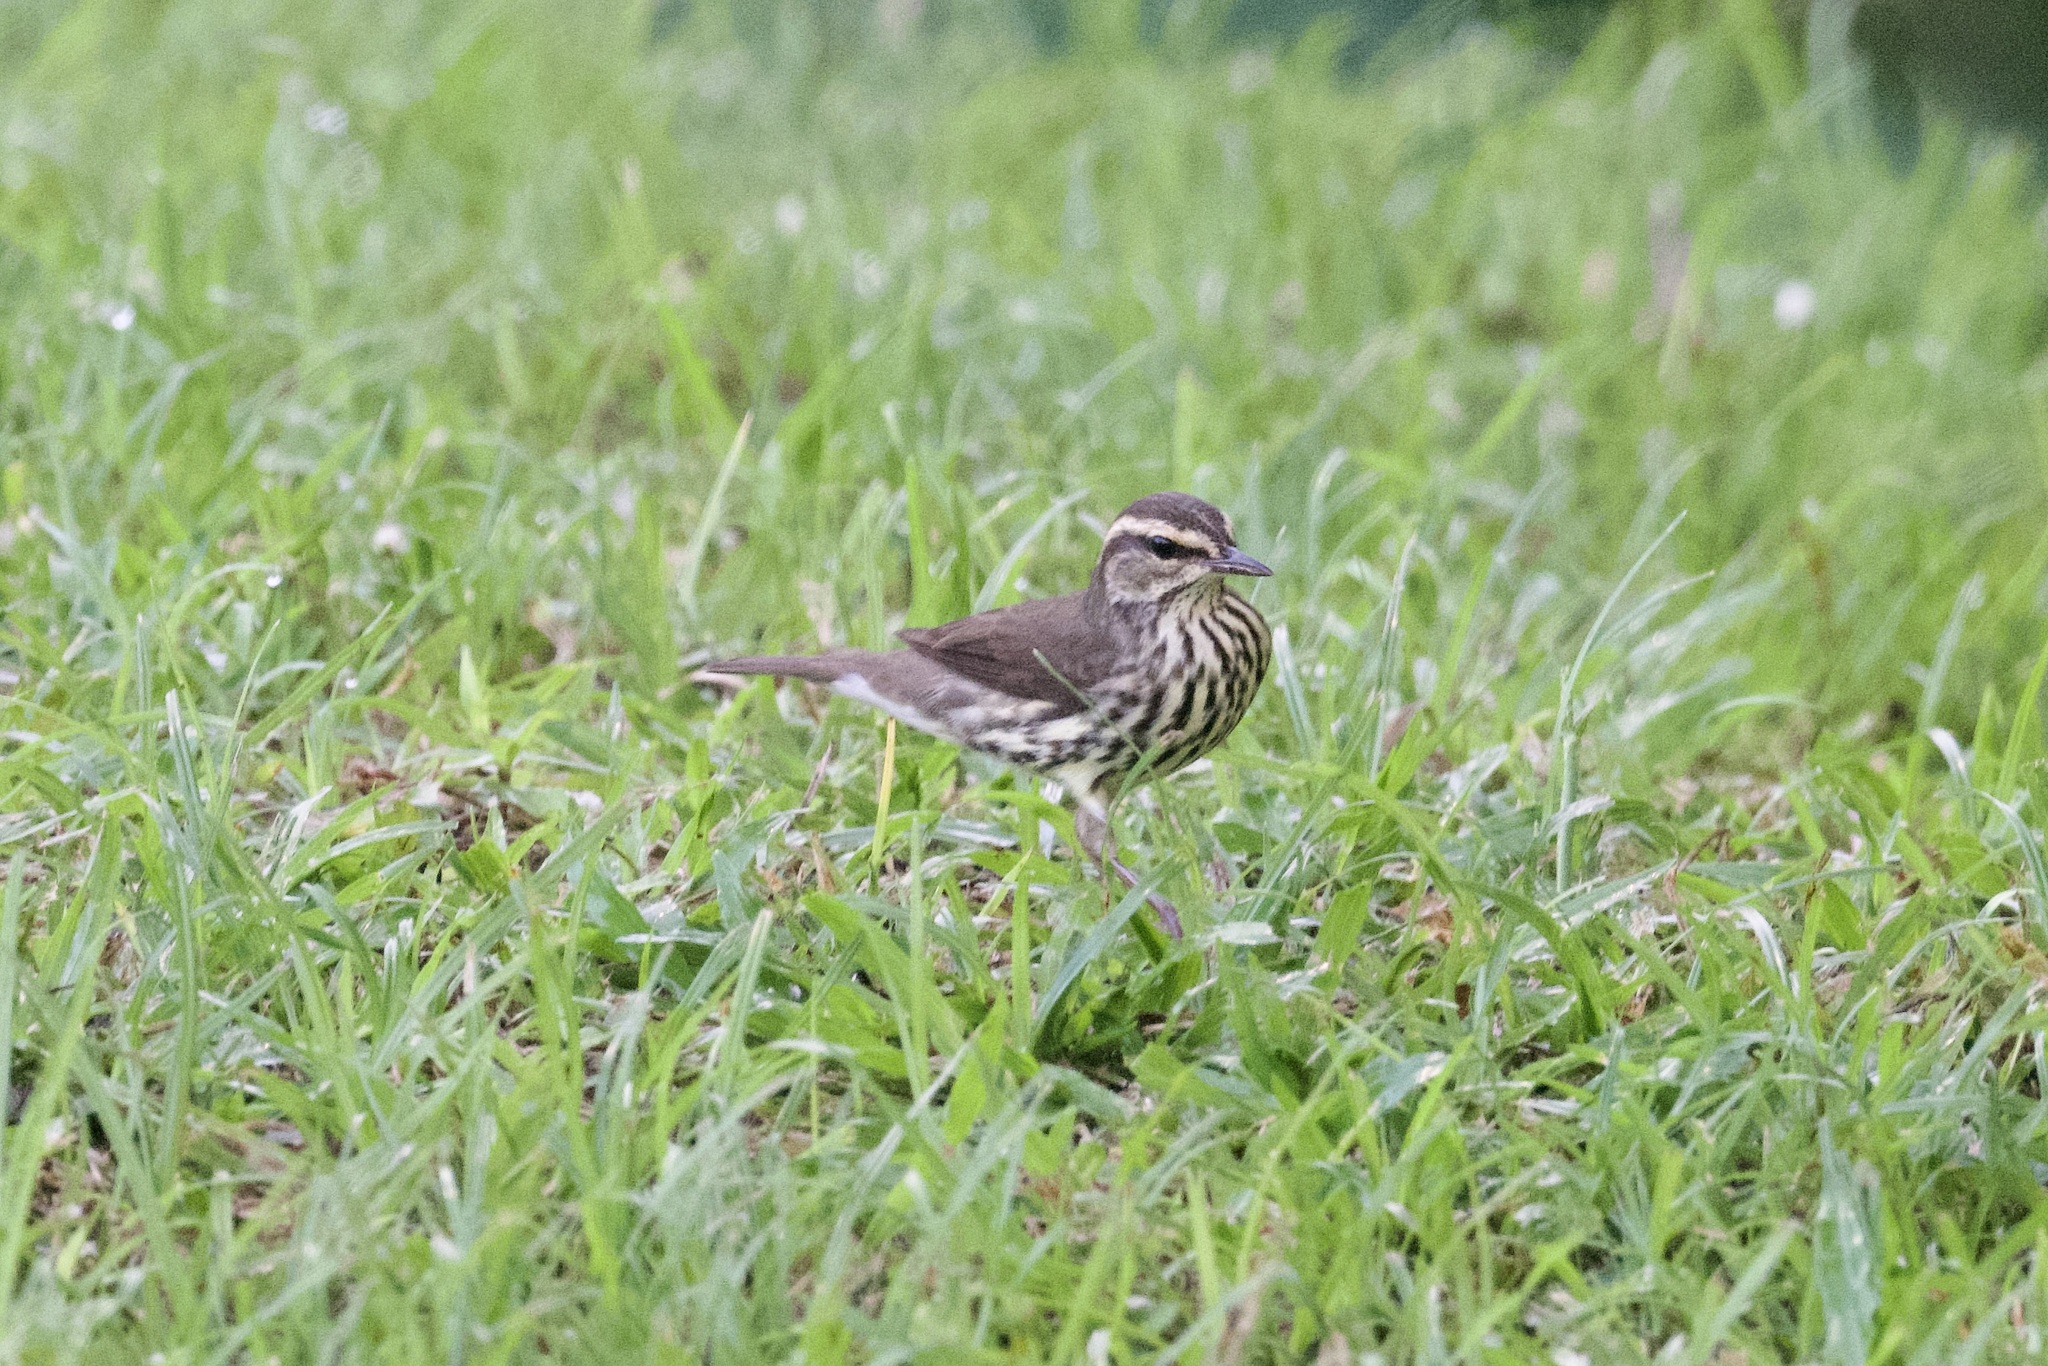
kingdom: Animalia
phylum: Chordata
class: Aves
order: Passeriformes
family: Parulidae
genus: Parkesia
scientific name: Parkesia noveboracensis
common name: Northern waterthrush
